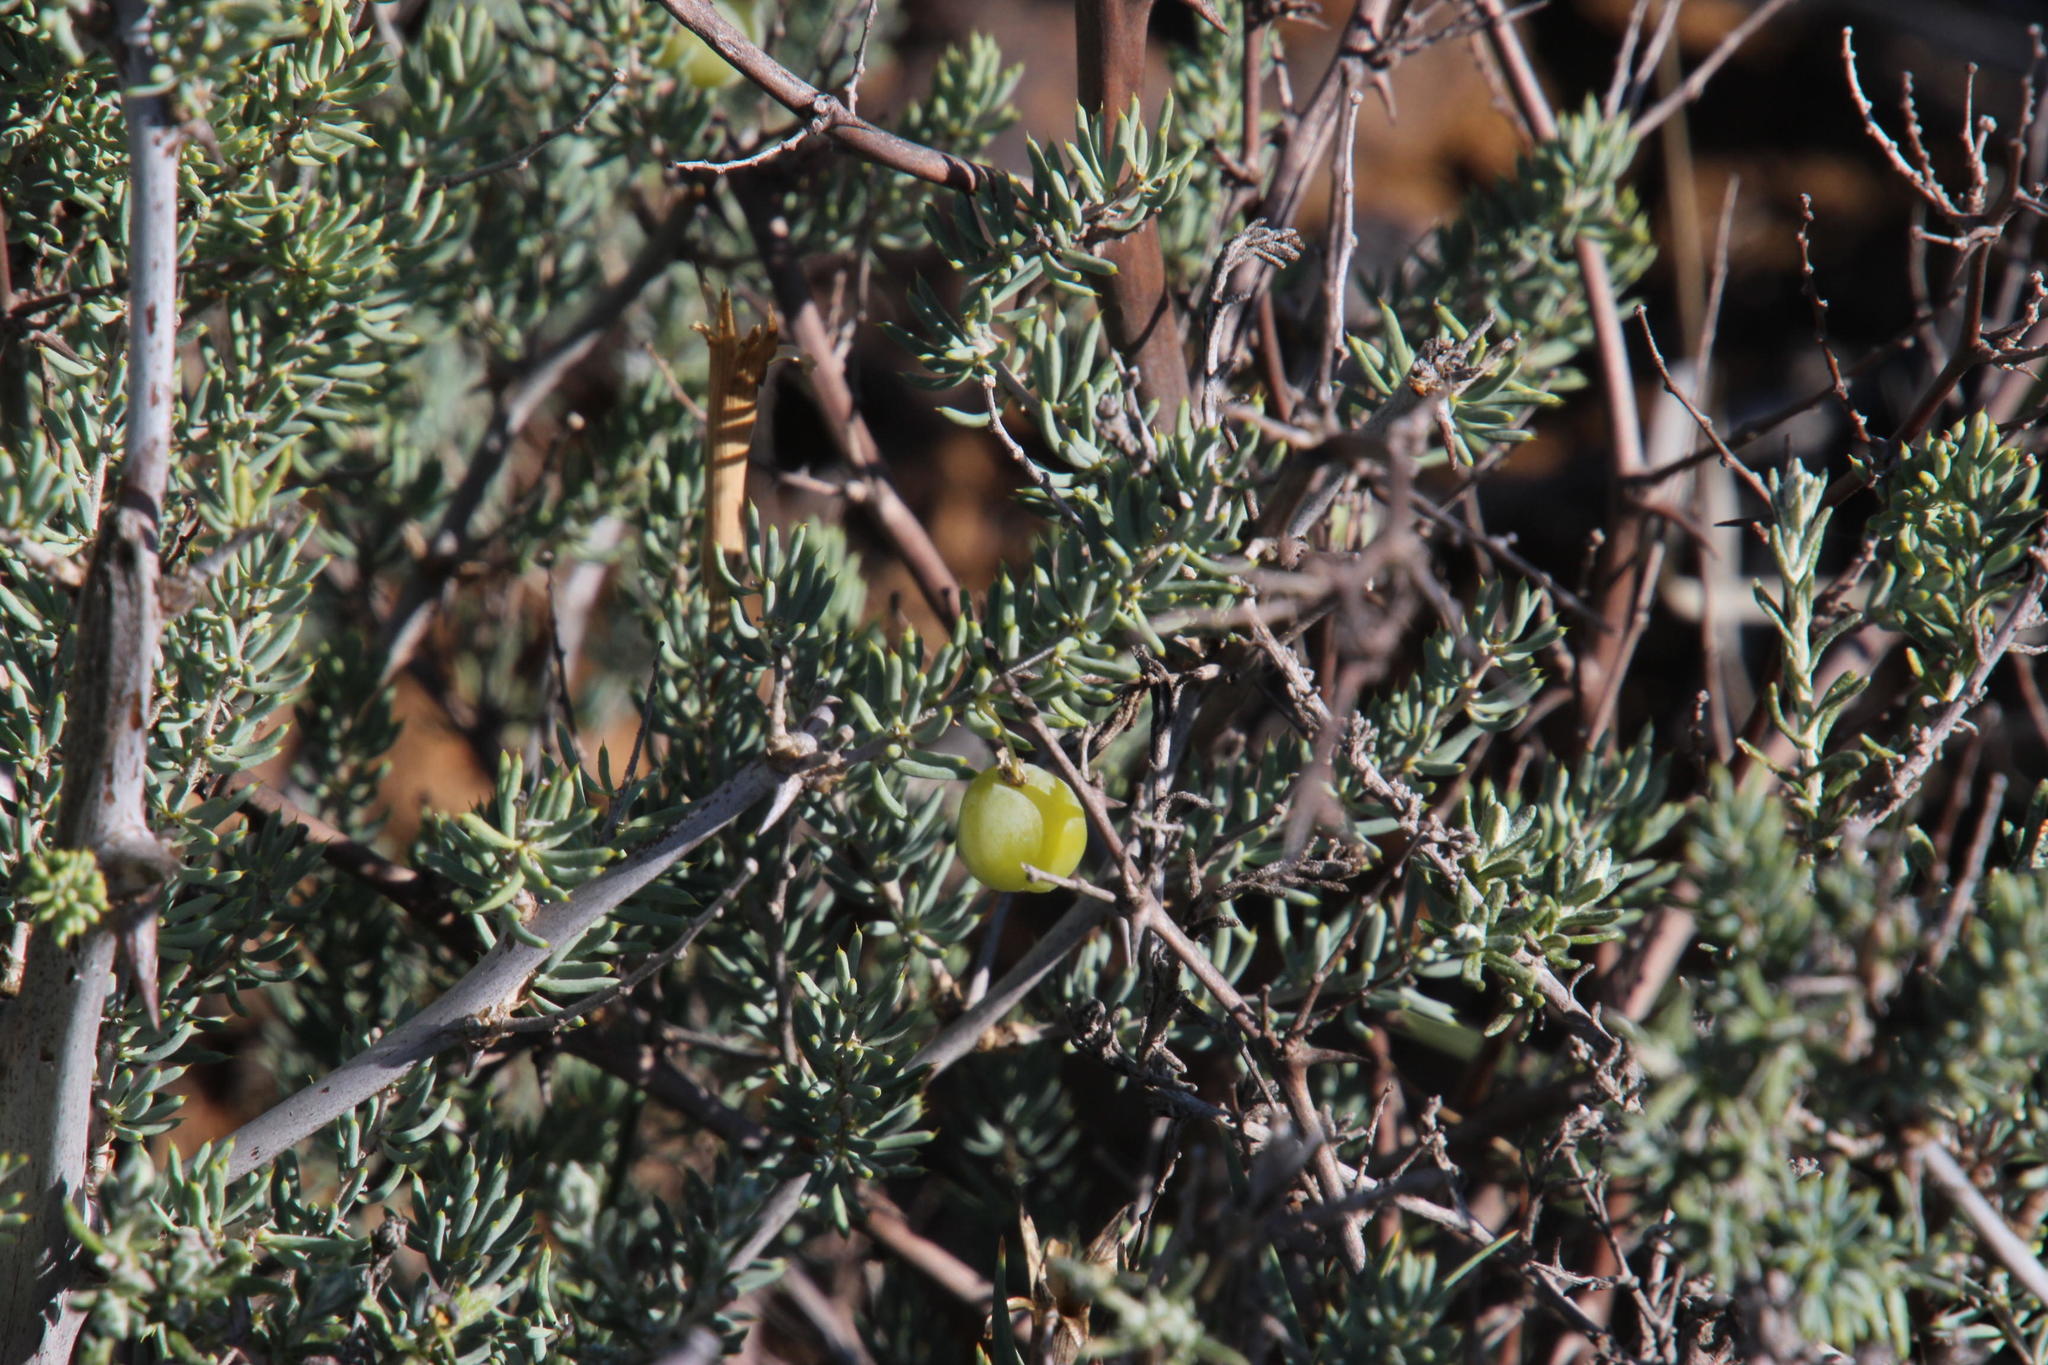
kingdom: Plantae
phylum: Tracheophyta
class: Liliopsida
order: Asparagales
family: Asparagaceae
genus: Asparagus
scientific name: Asparagus mucronatus
